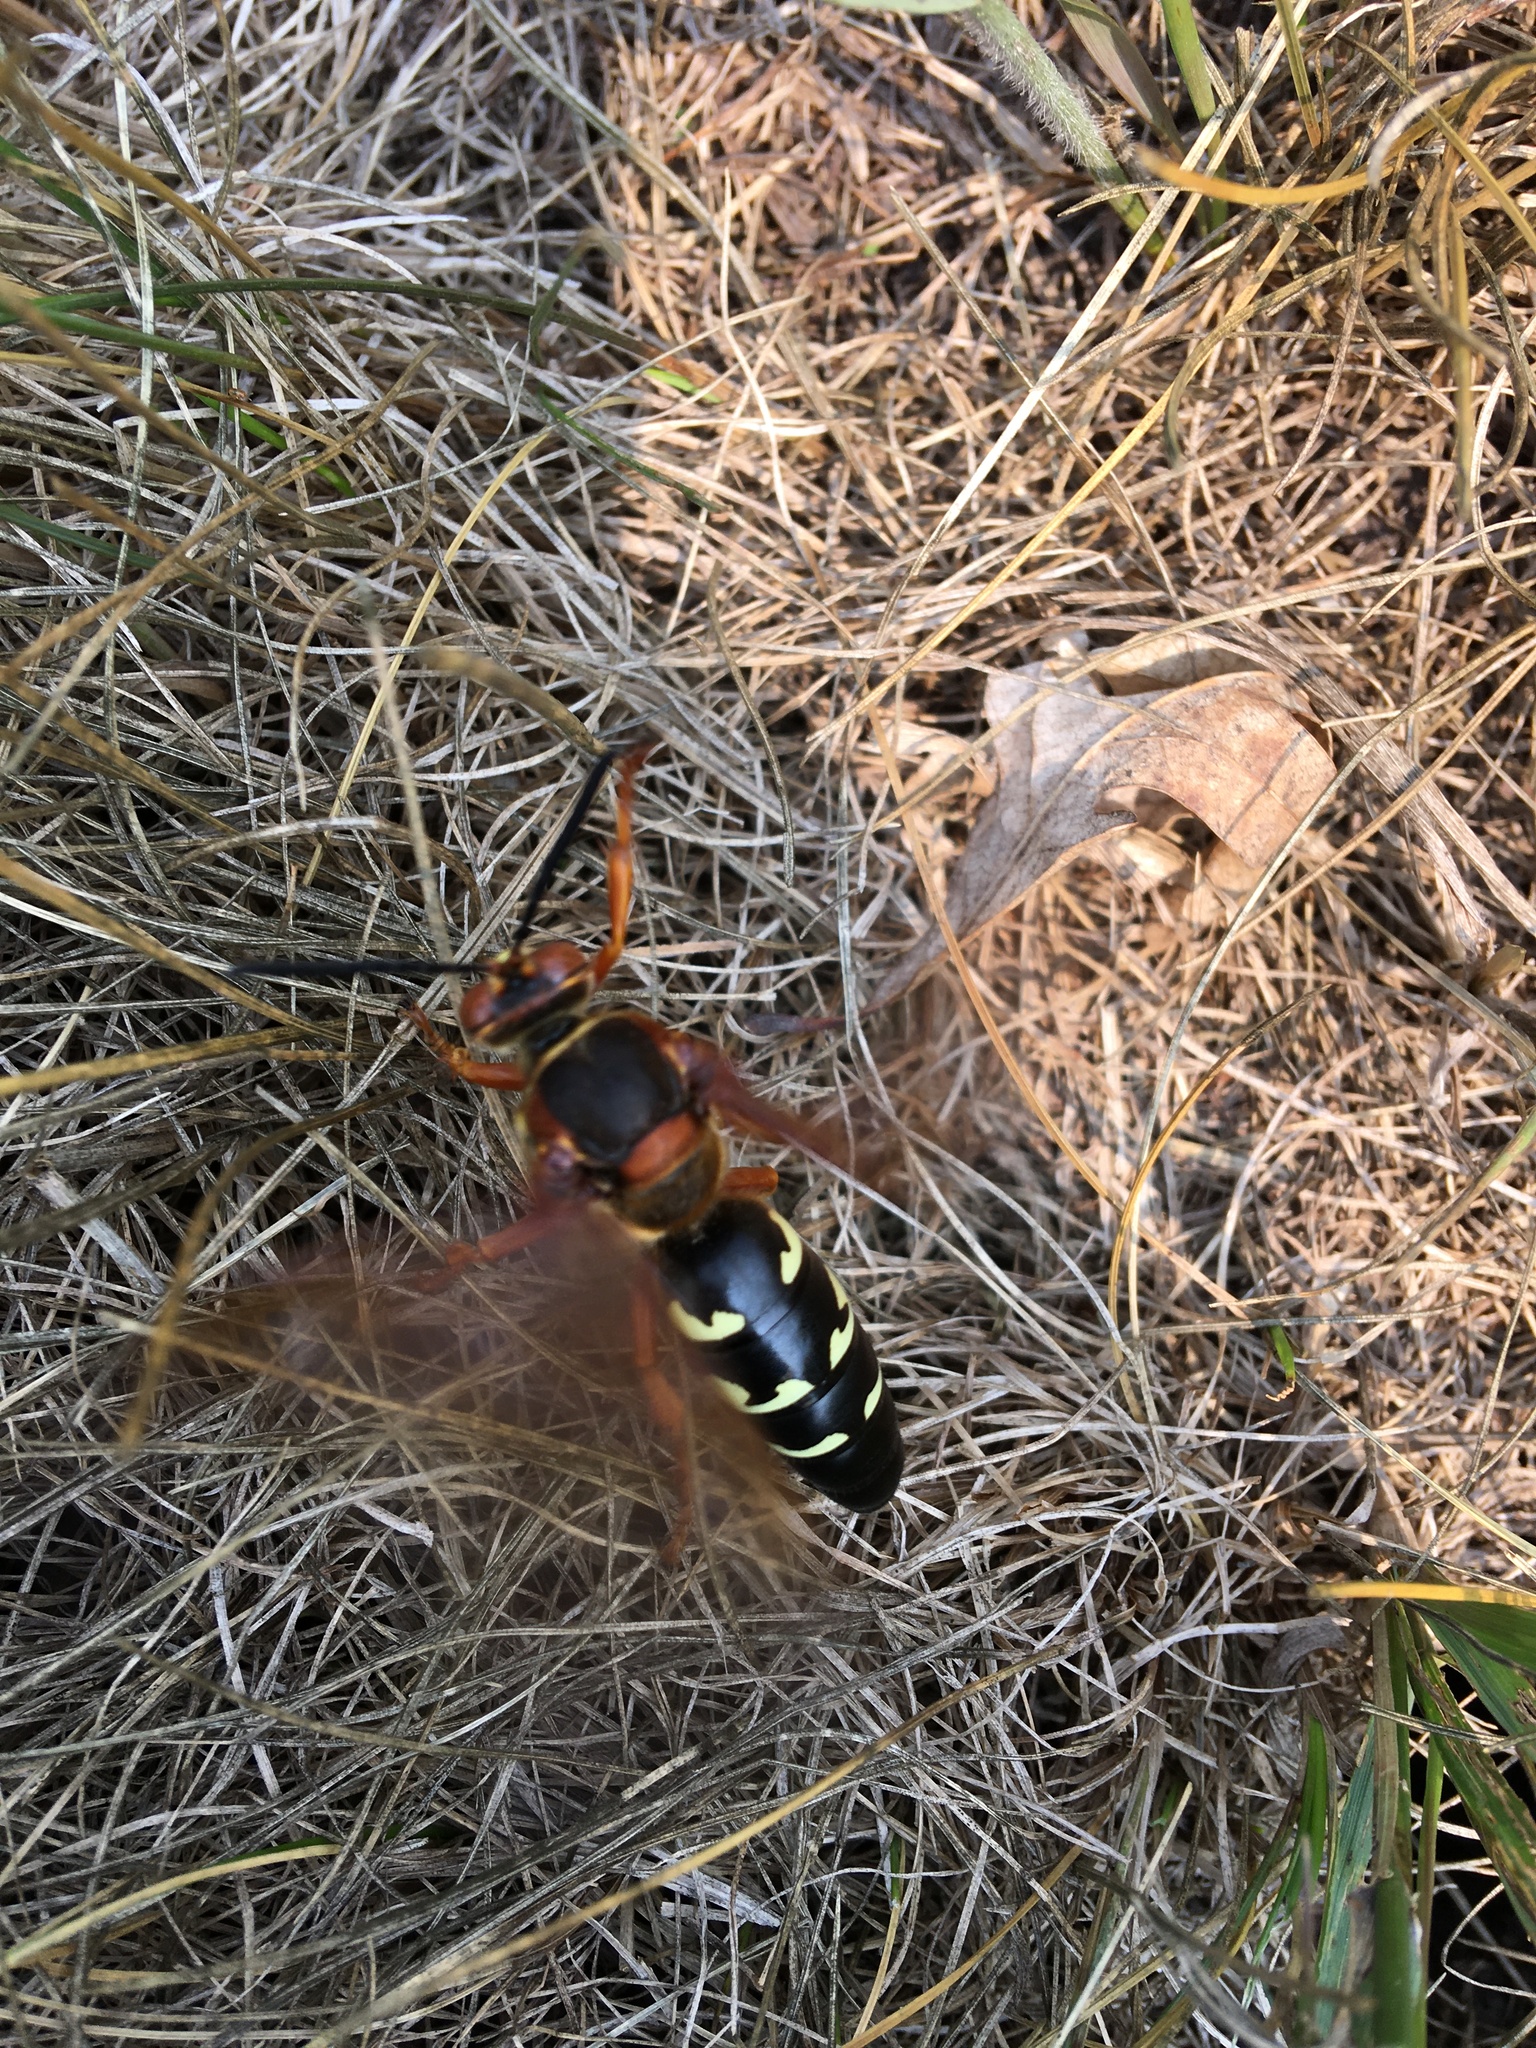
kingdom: Animalia
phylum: Arthropoda
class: Insecta
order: Hymenoptera
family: Crabronidae
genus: Sphecius
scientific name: Sphecius speciosus
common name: Cicada killer
